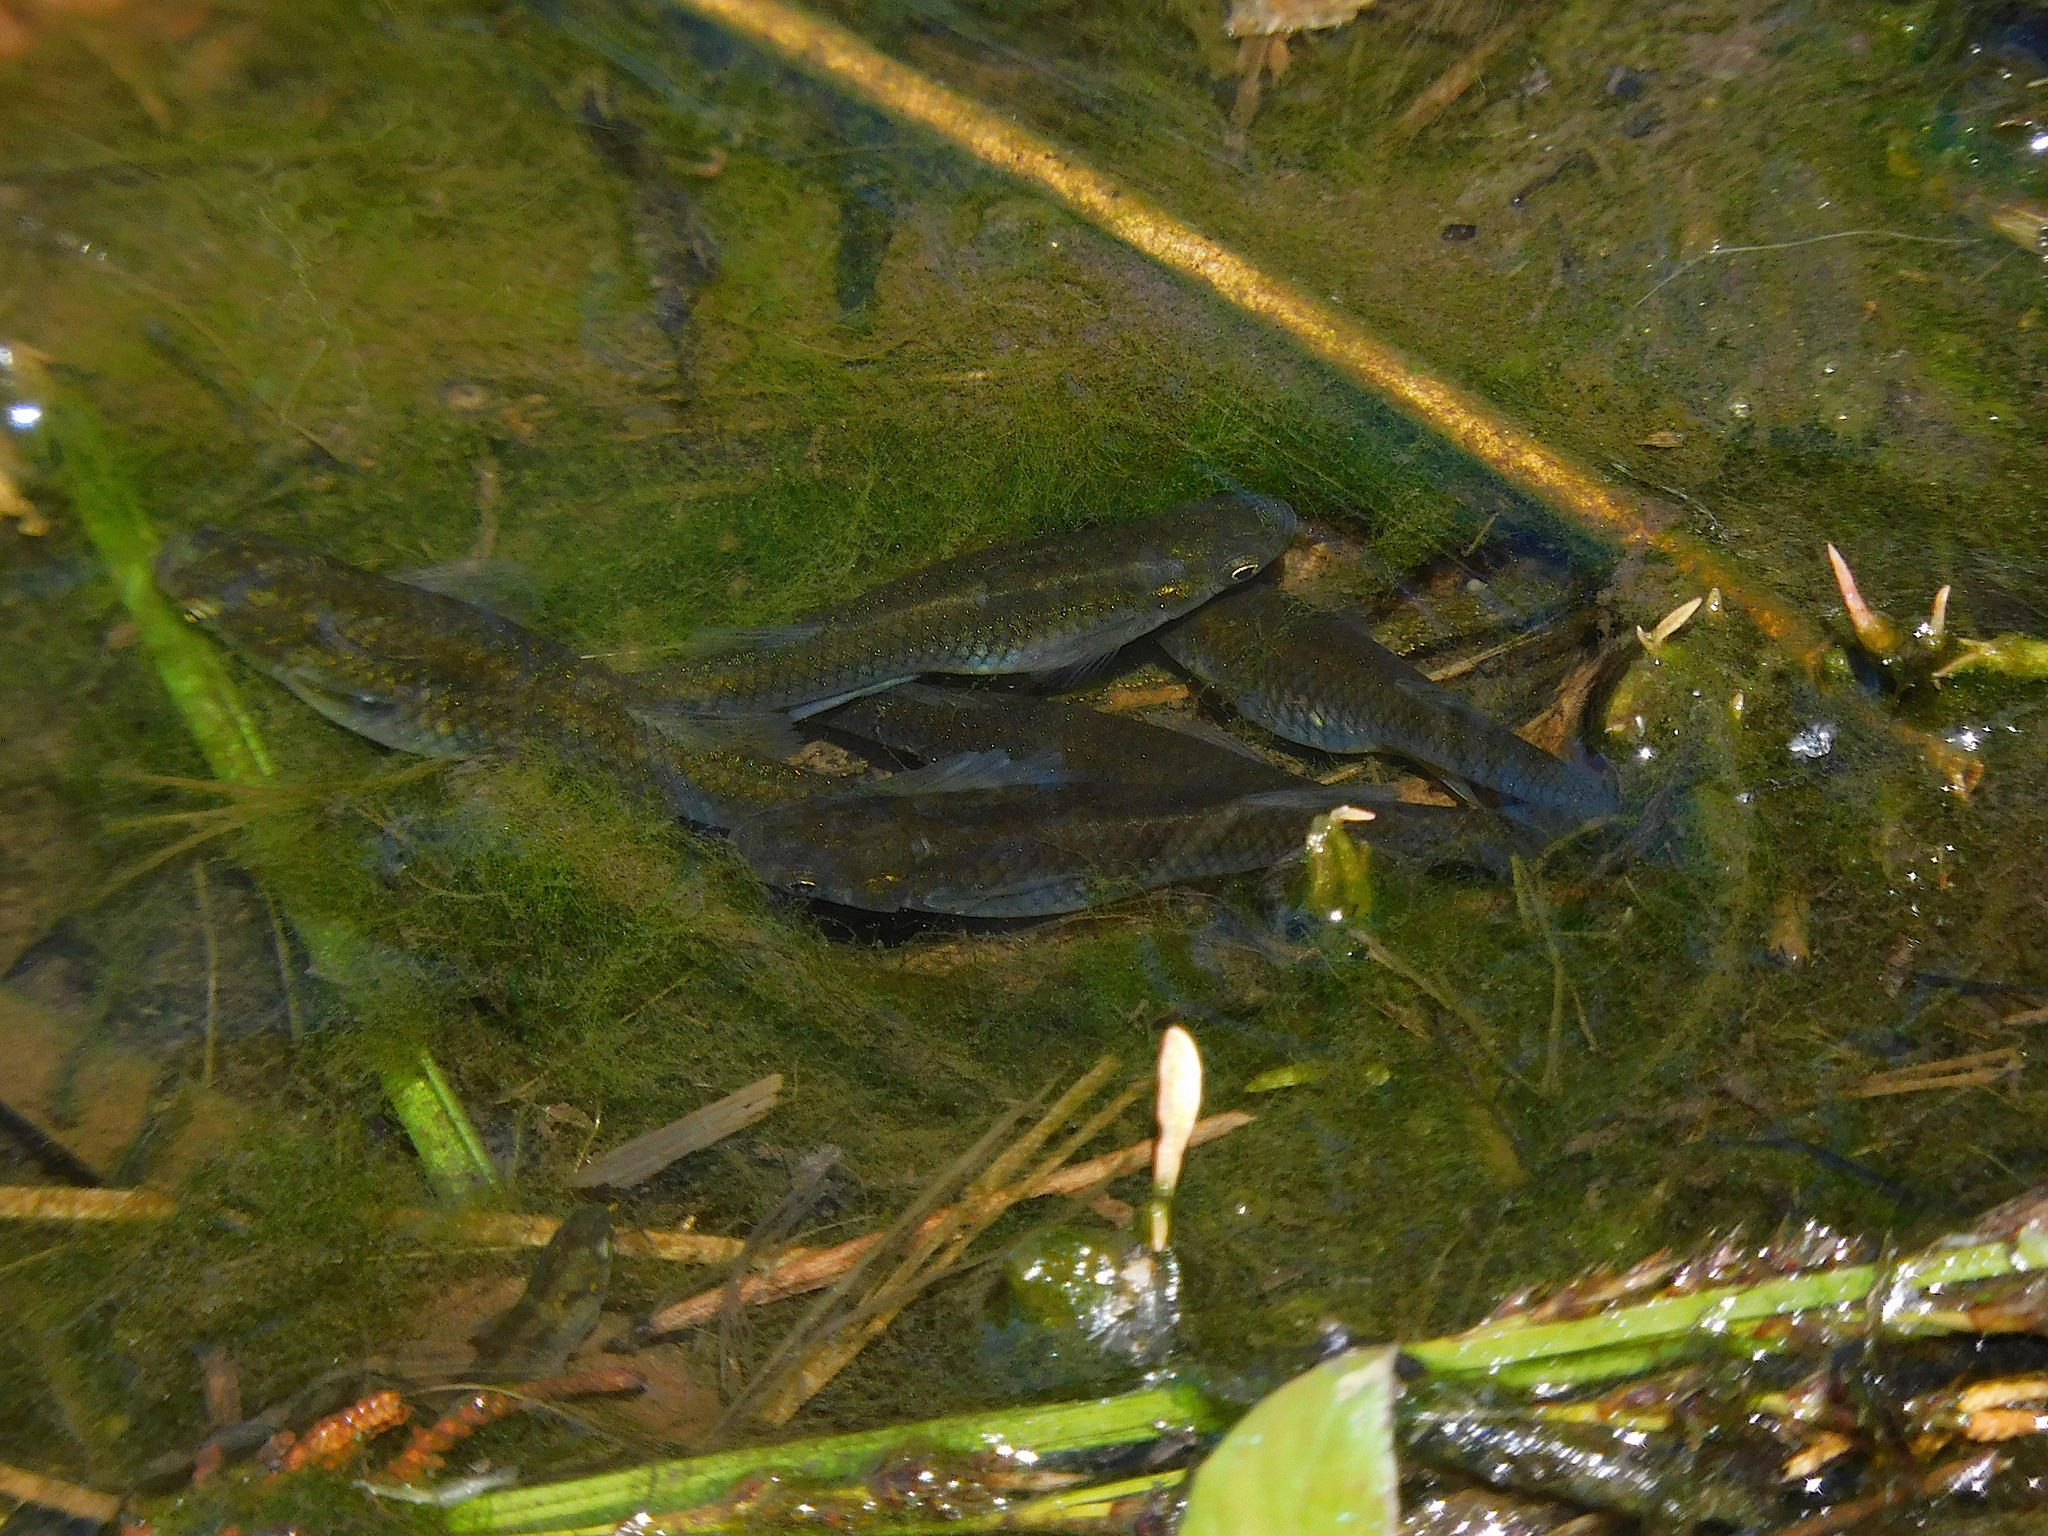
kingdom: Animalia
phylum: Chordata
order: Cyprinodontiformes
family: Poeciliidae
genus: Gambusia
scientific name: Gambusia affinis
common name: Mosquitofish
